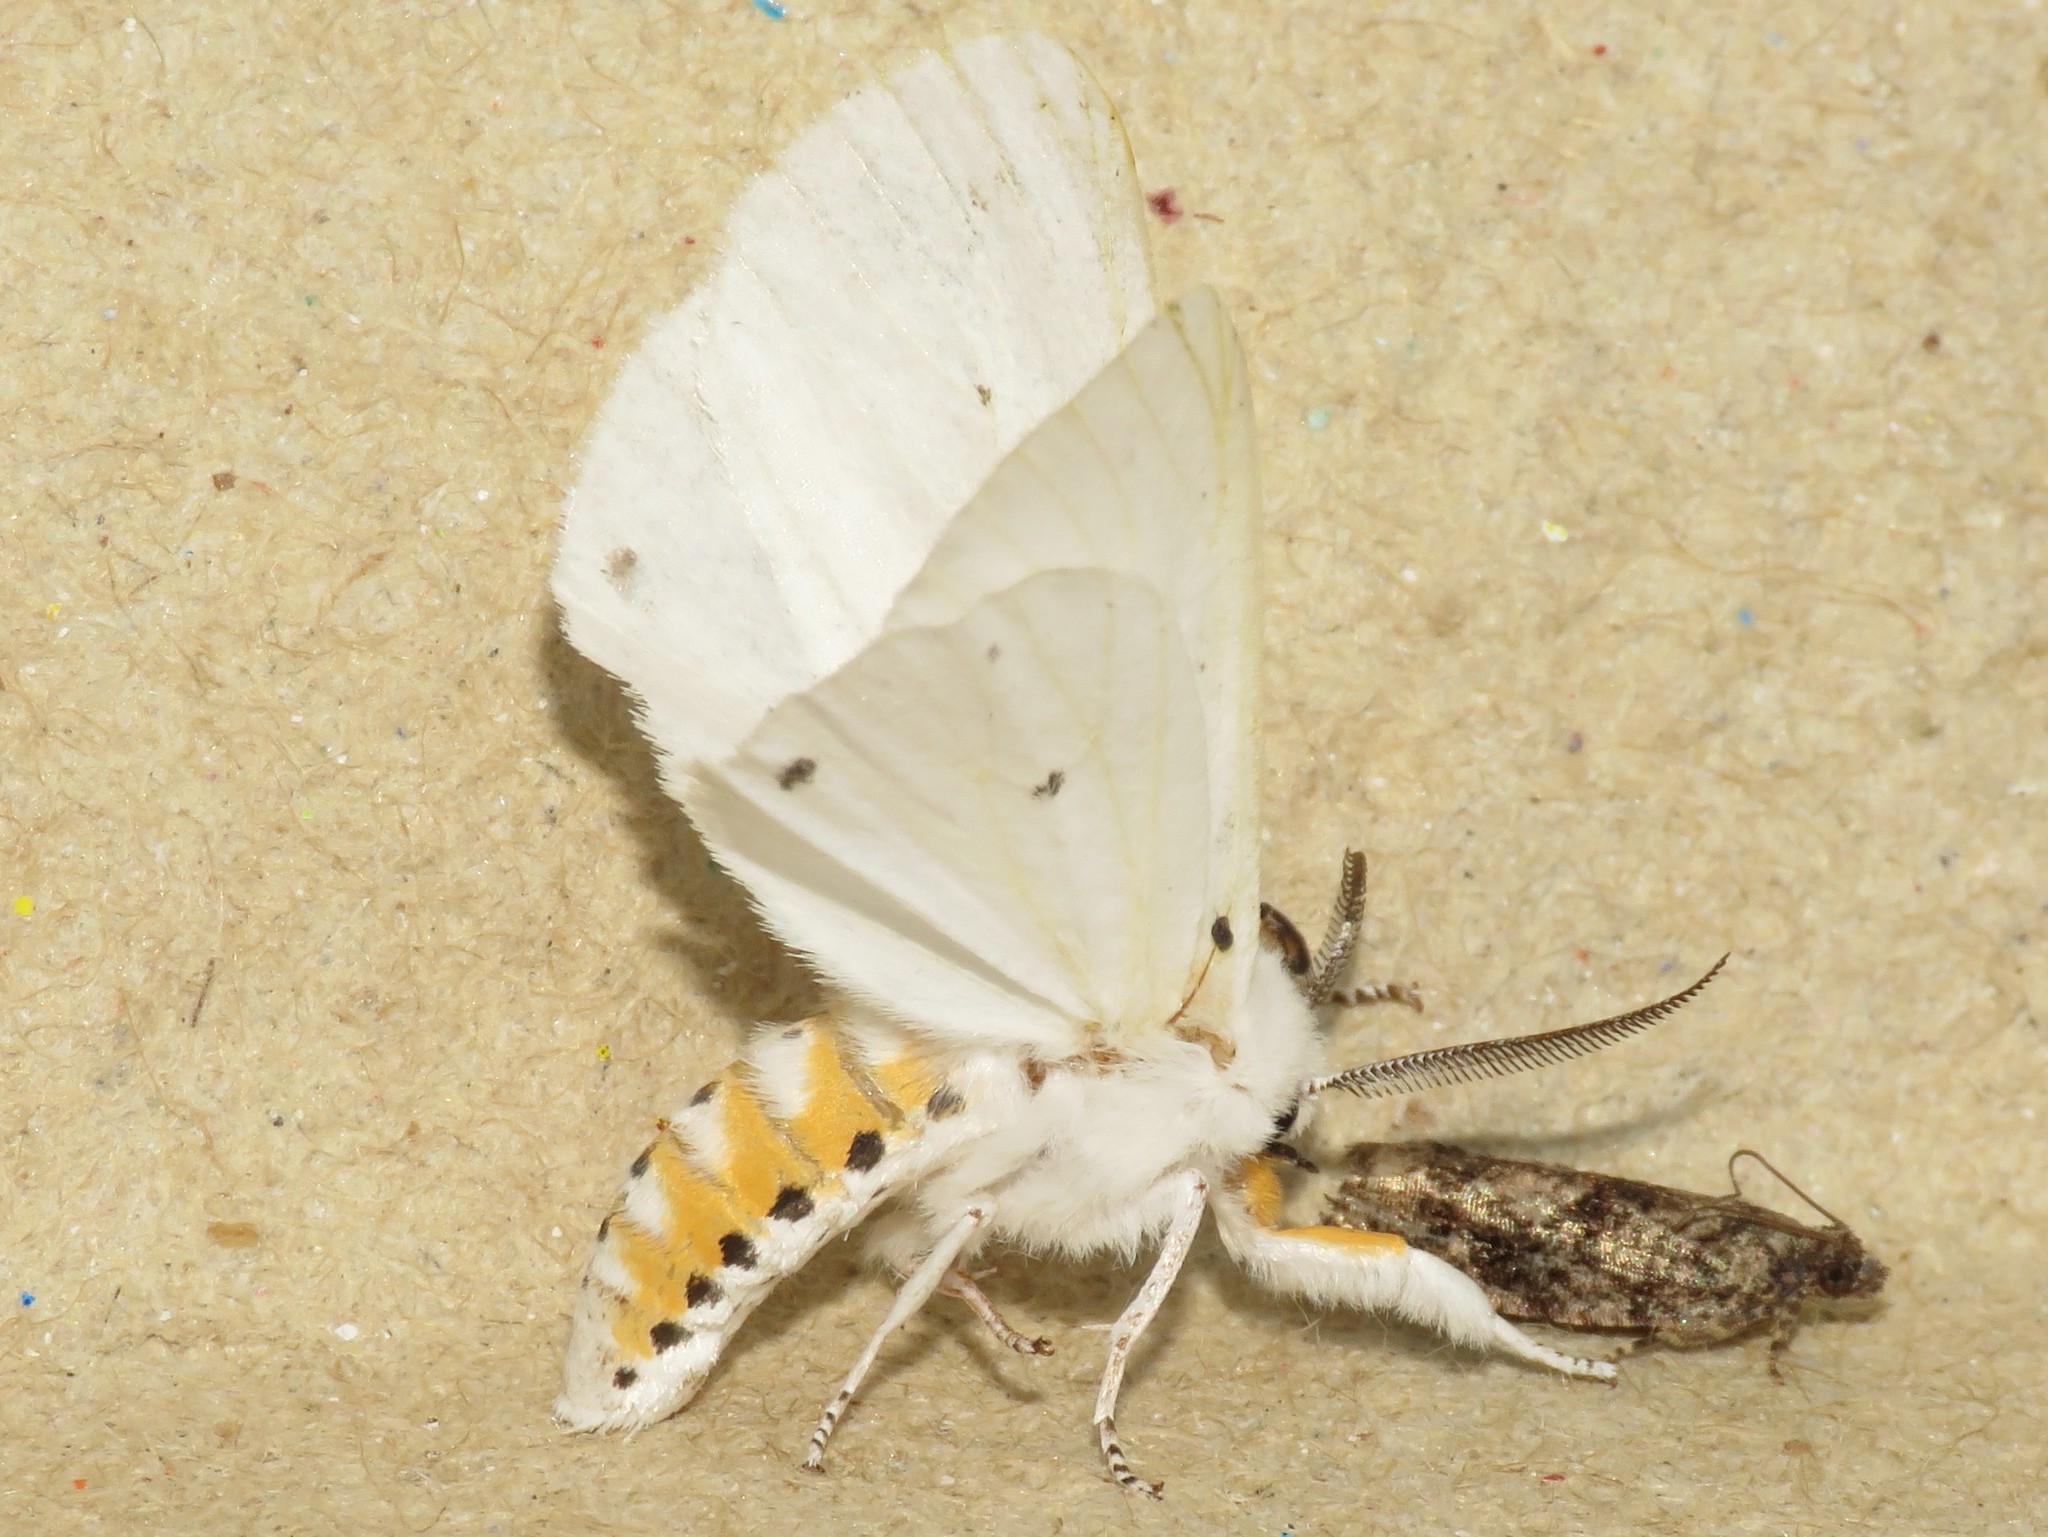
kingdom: Animalia
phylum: Arthropoda
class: Insecta
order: Lepidoptera
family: Erebidae
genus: Spilosoma
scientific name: Spilosoma virginica
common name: Virginia tiger moth
